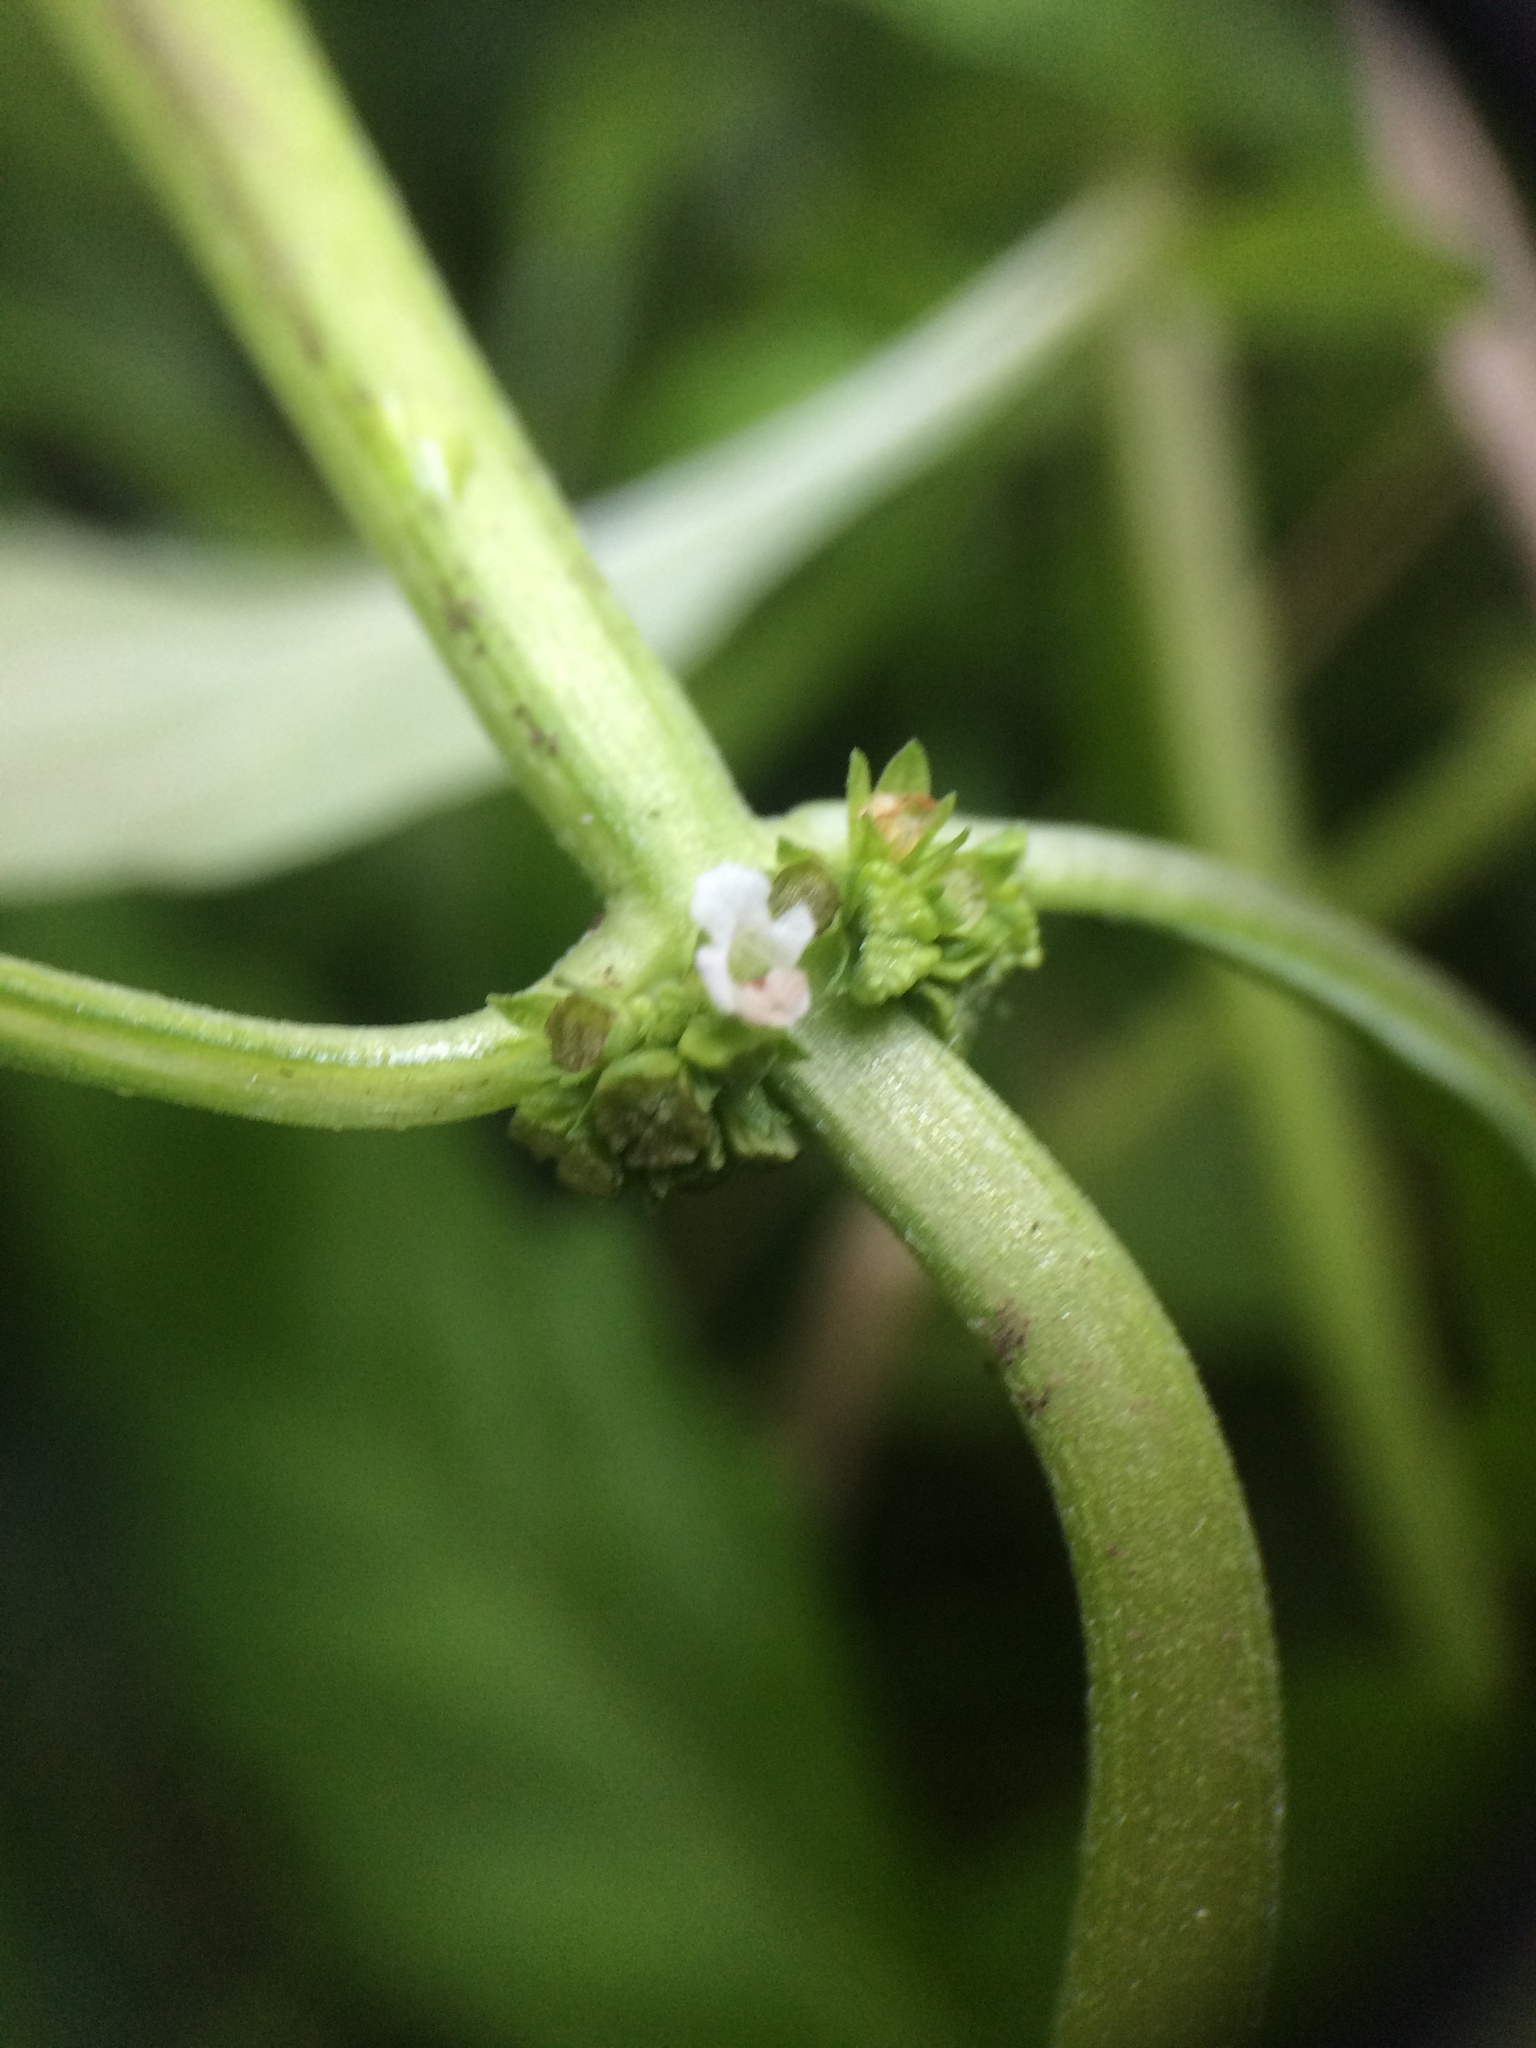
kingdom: Plantae
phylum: Tracheophyta
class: Magnoliopsida
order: Lamiales
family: Lamiaceae
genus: Lycopus
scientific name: Lycopus uniflorus
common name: Northern bugleweed
